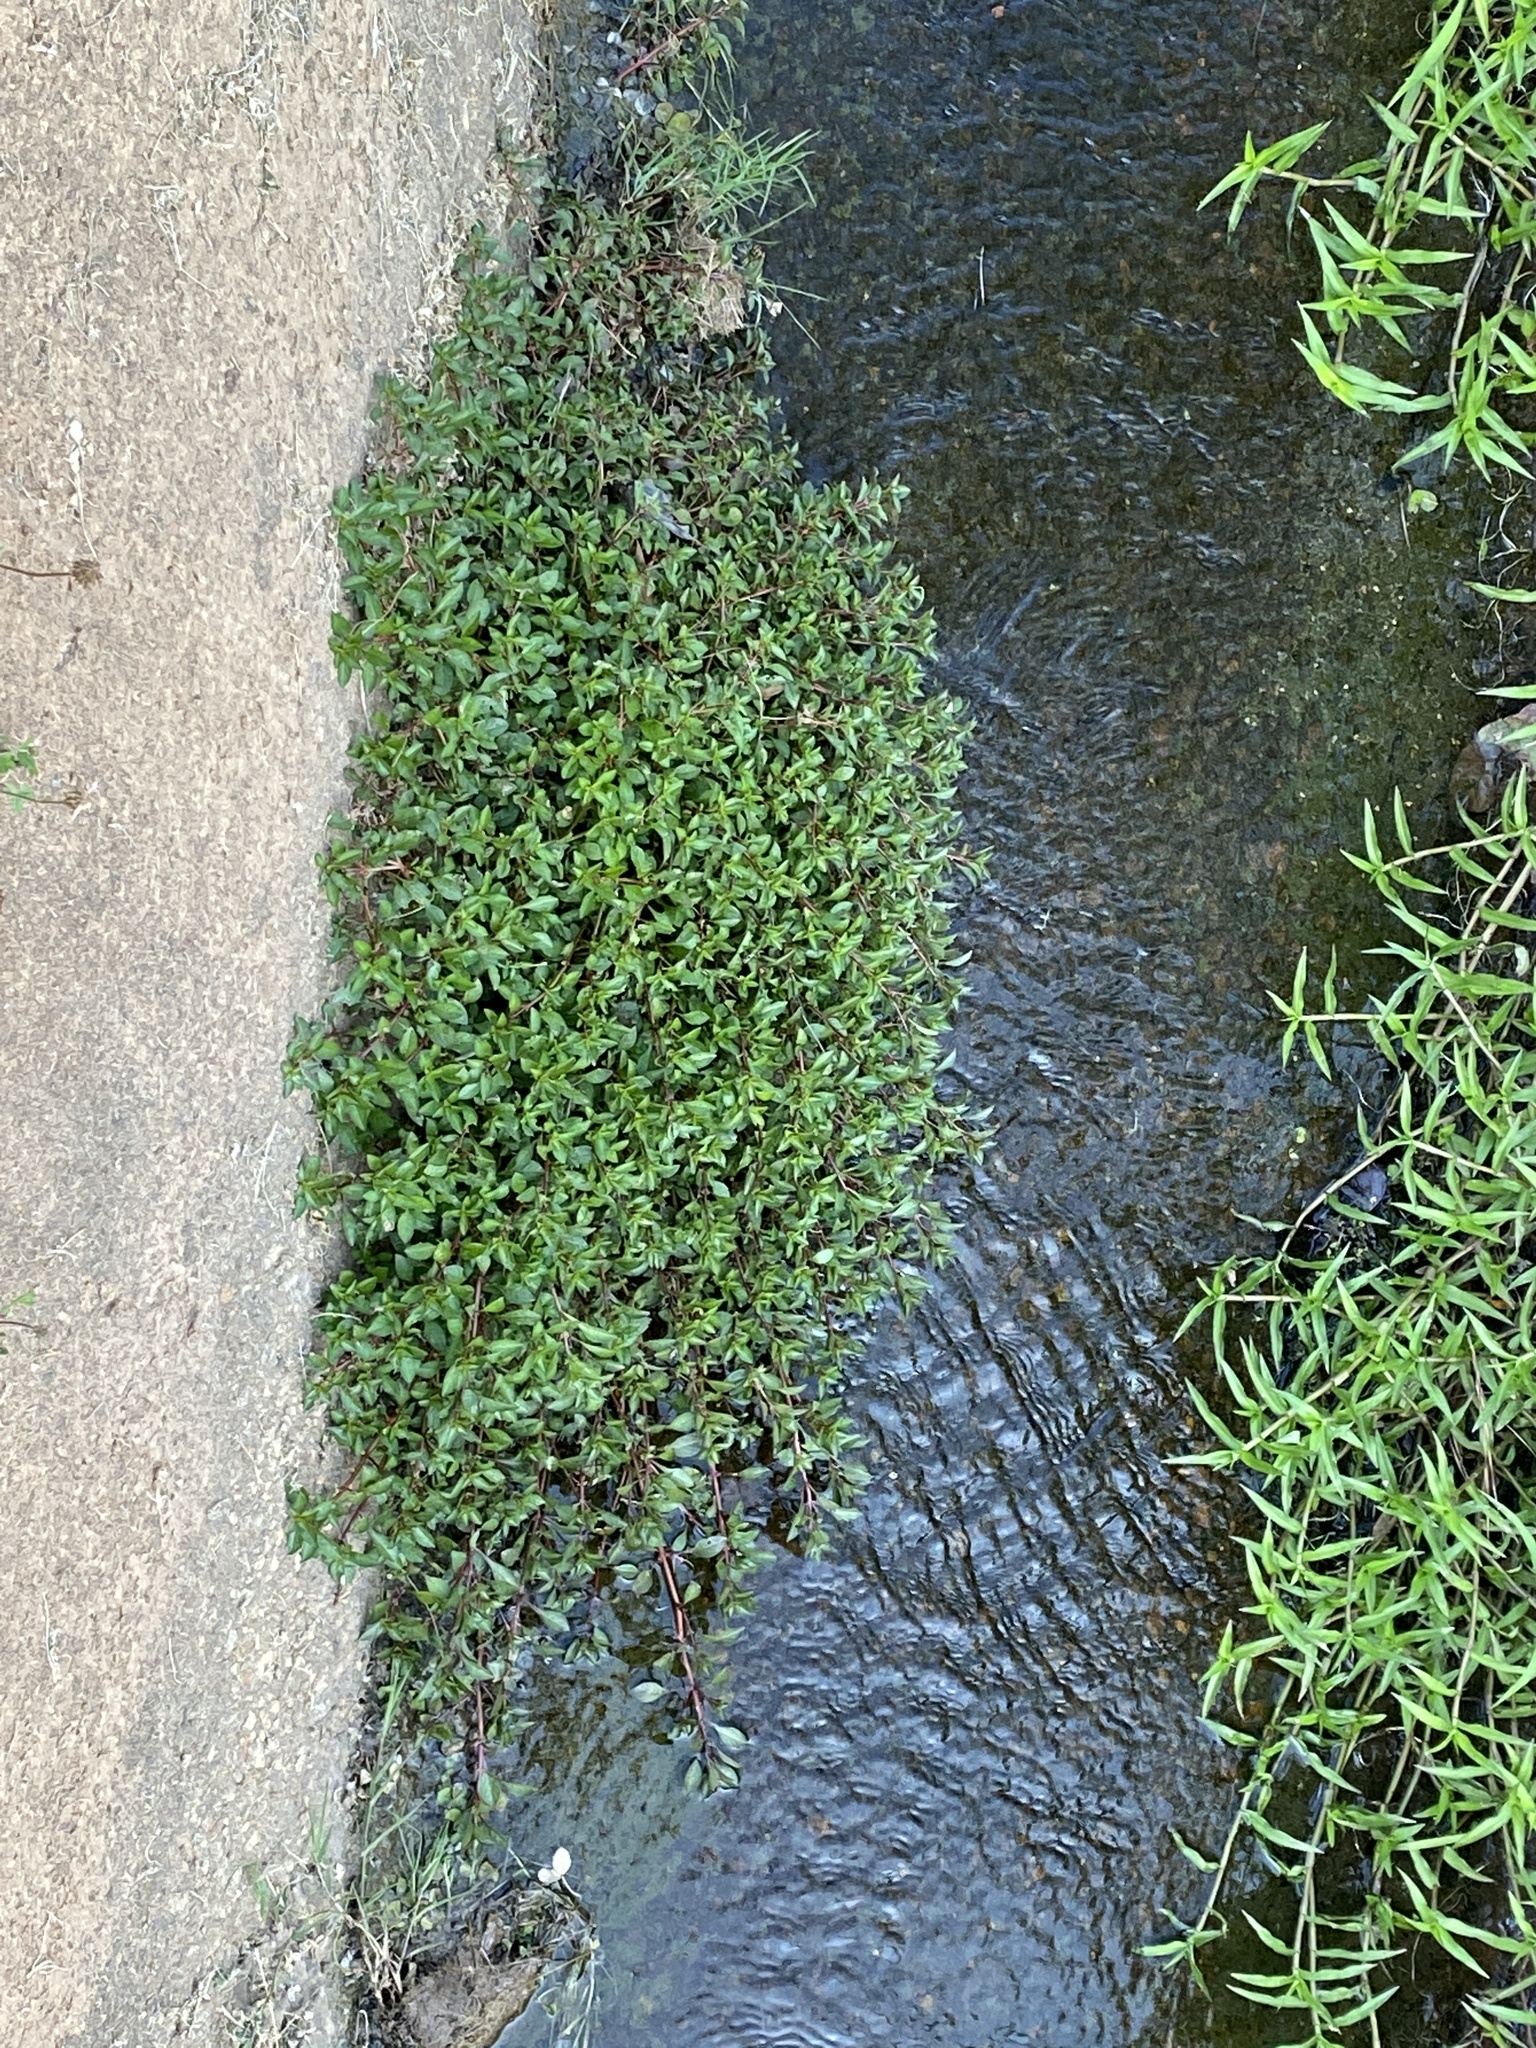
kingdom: Plantae
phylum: Tracheophyta
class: Magnoliopsida
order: Myrtales
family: Onagraceae
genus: Ludwigia
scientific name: Ludwigia palustris
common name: Hampshire-purslane
